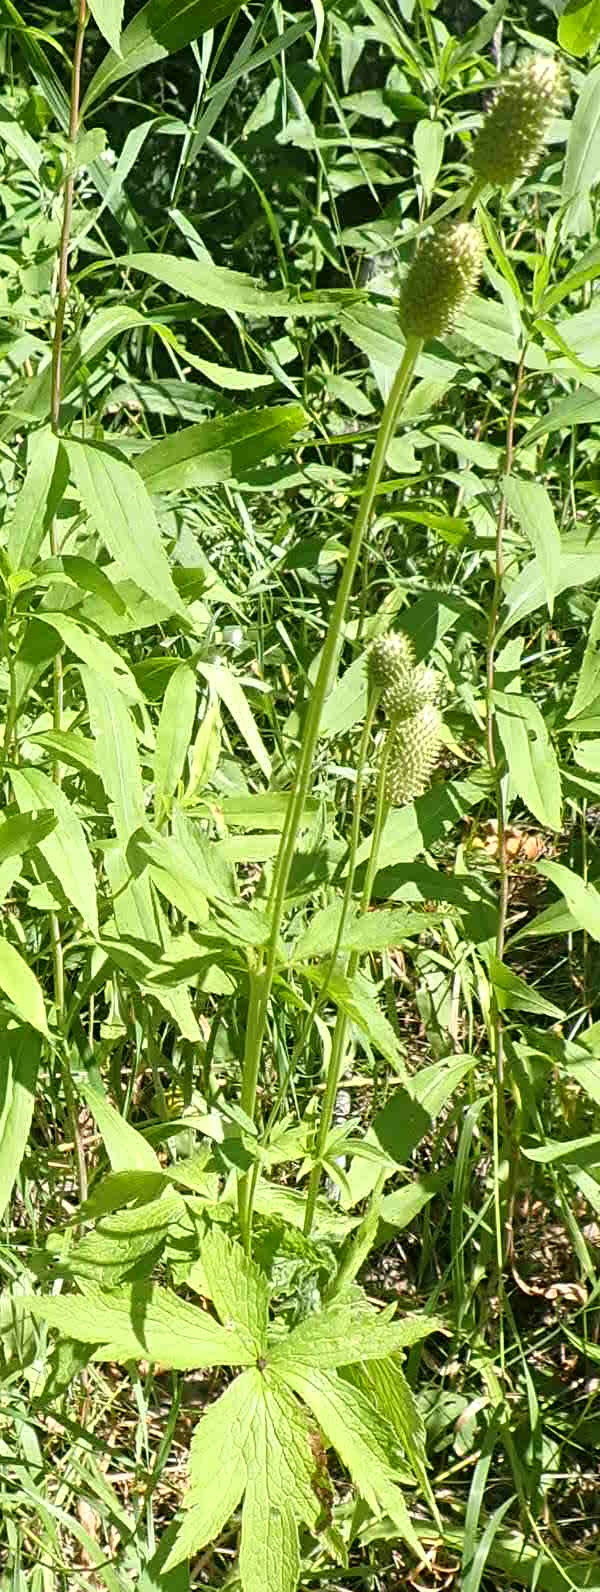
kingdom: Plantae
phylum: Tracheophyta
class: Magnoliopsida
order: Ranunculales
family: Ranunculaceae
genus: Anemone
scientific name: Anemone virginiana
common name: Tall anemone
